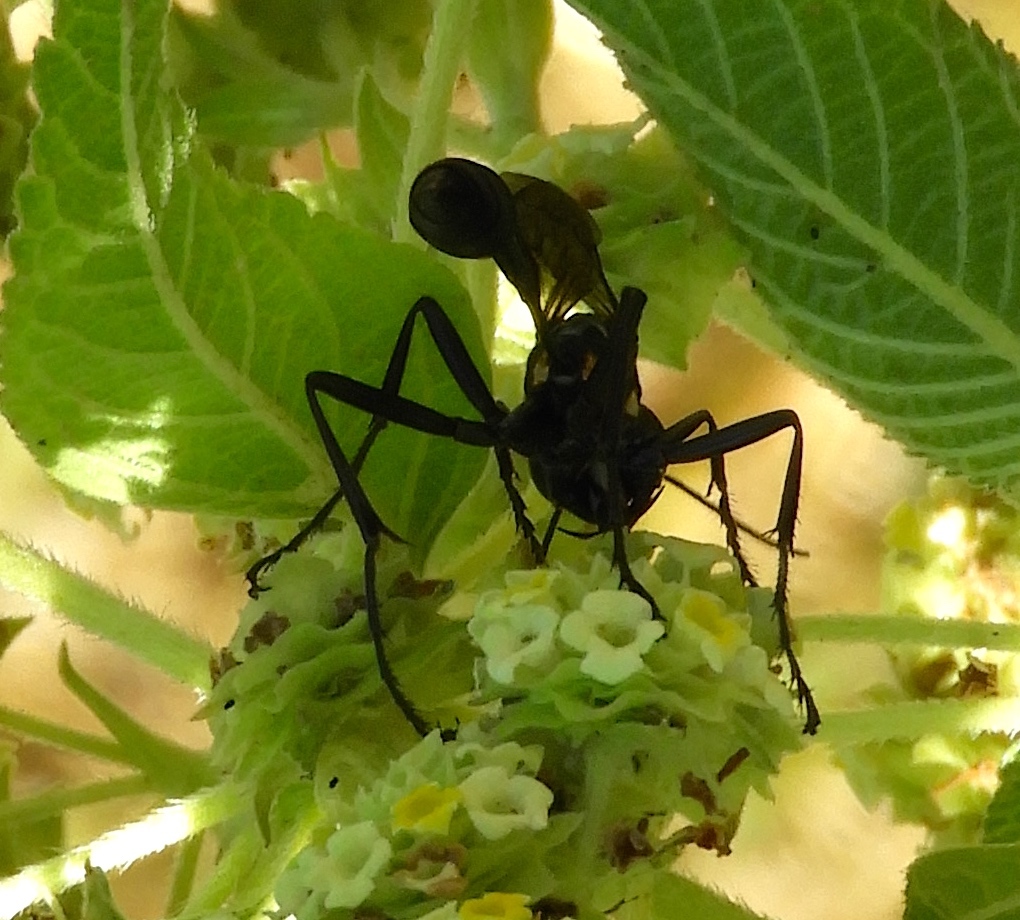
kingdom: Animalia
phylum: Arthropoda
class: Insecta
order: Hymenoptera
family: Sphecidae
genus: Eremnophila
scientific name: Eremnophila
